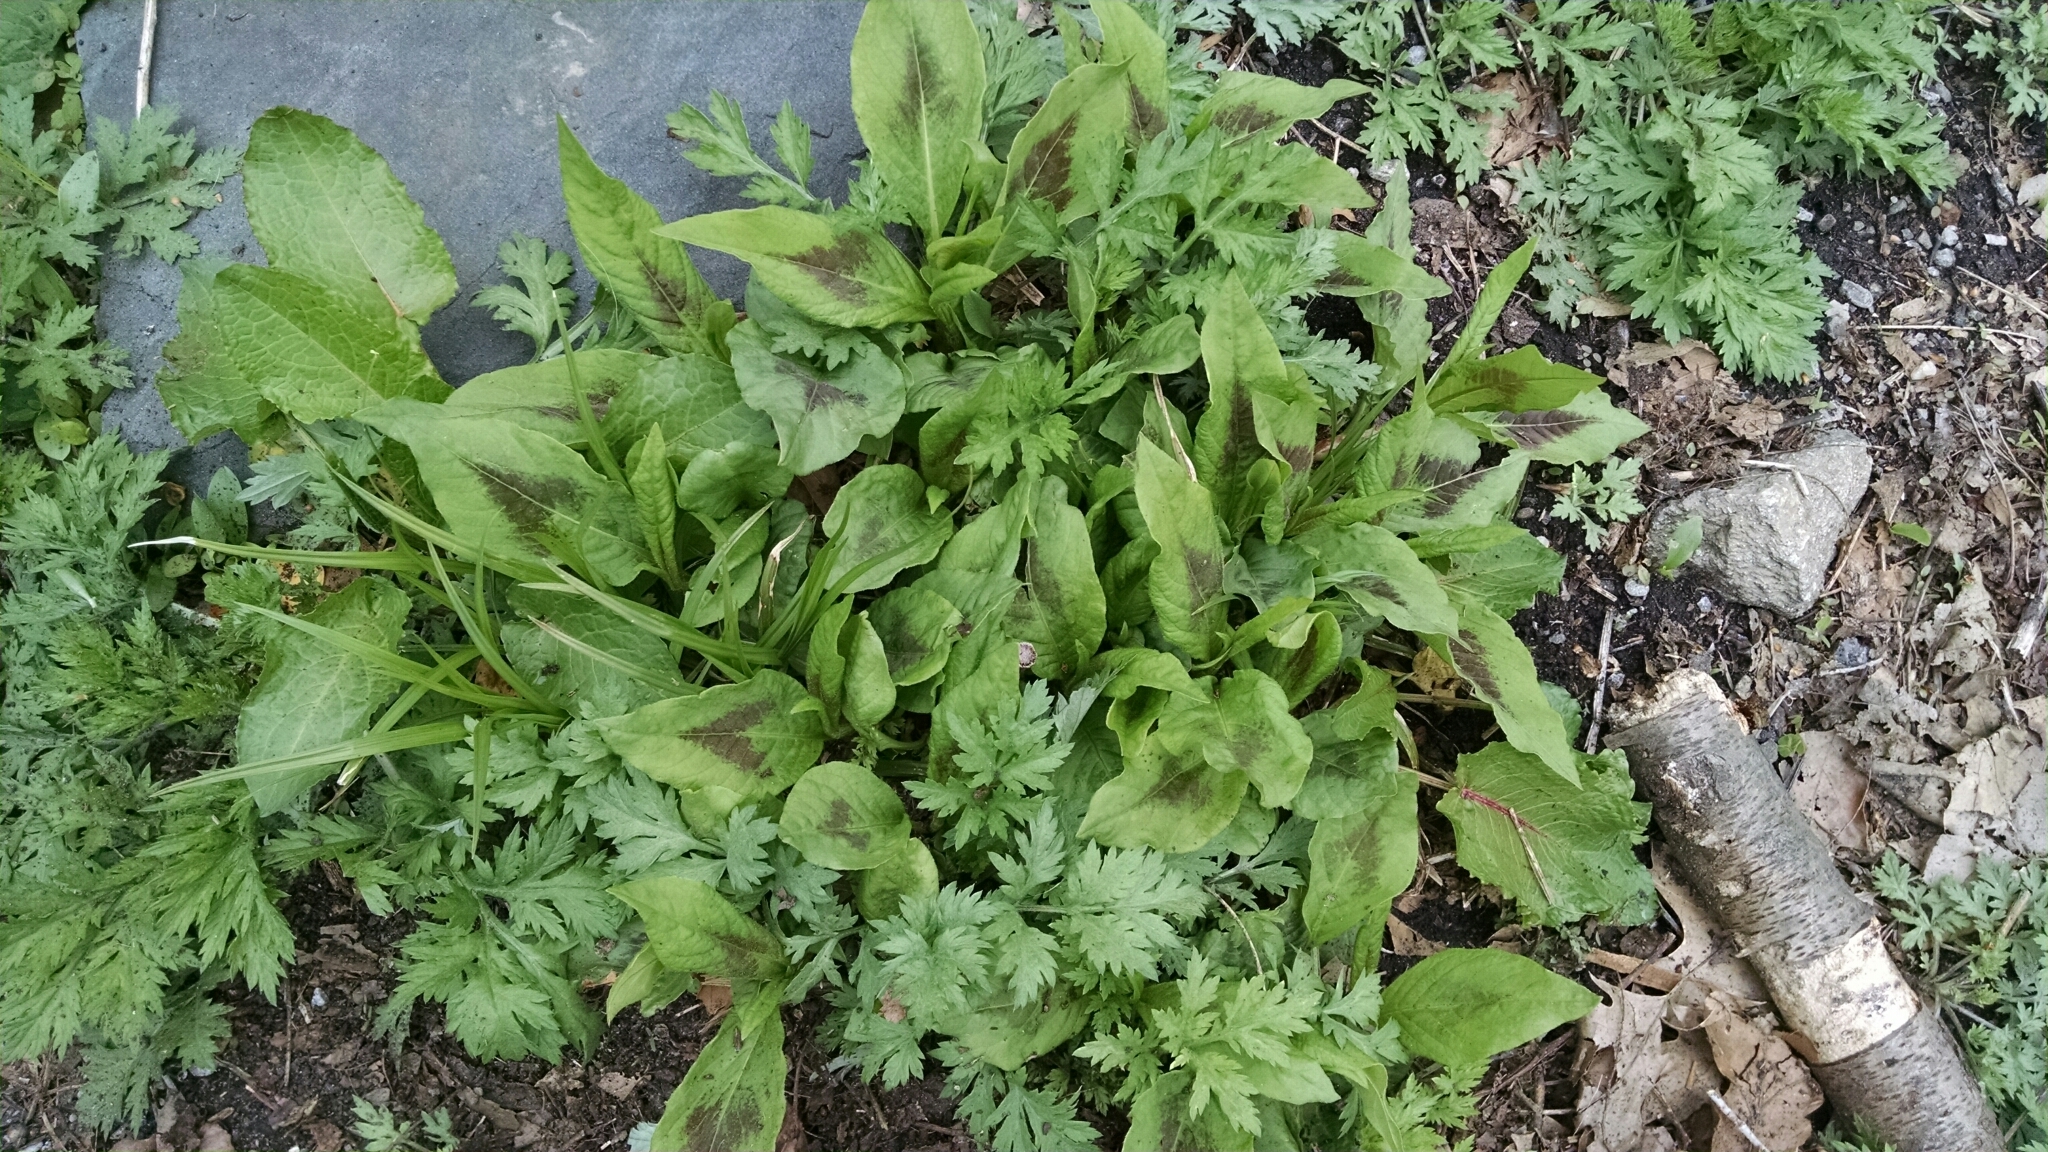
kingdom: Plantae
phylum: Tracheophyta
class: Magnoliopsida
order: Caryophyllales
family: Polygonaceae
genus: Persicaria
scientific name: Persicaria virginiana
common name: Jumpseed
